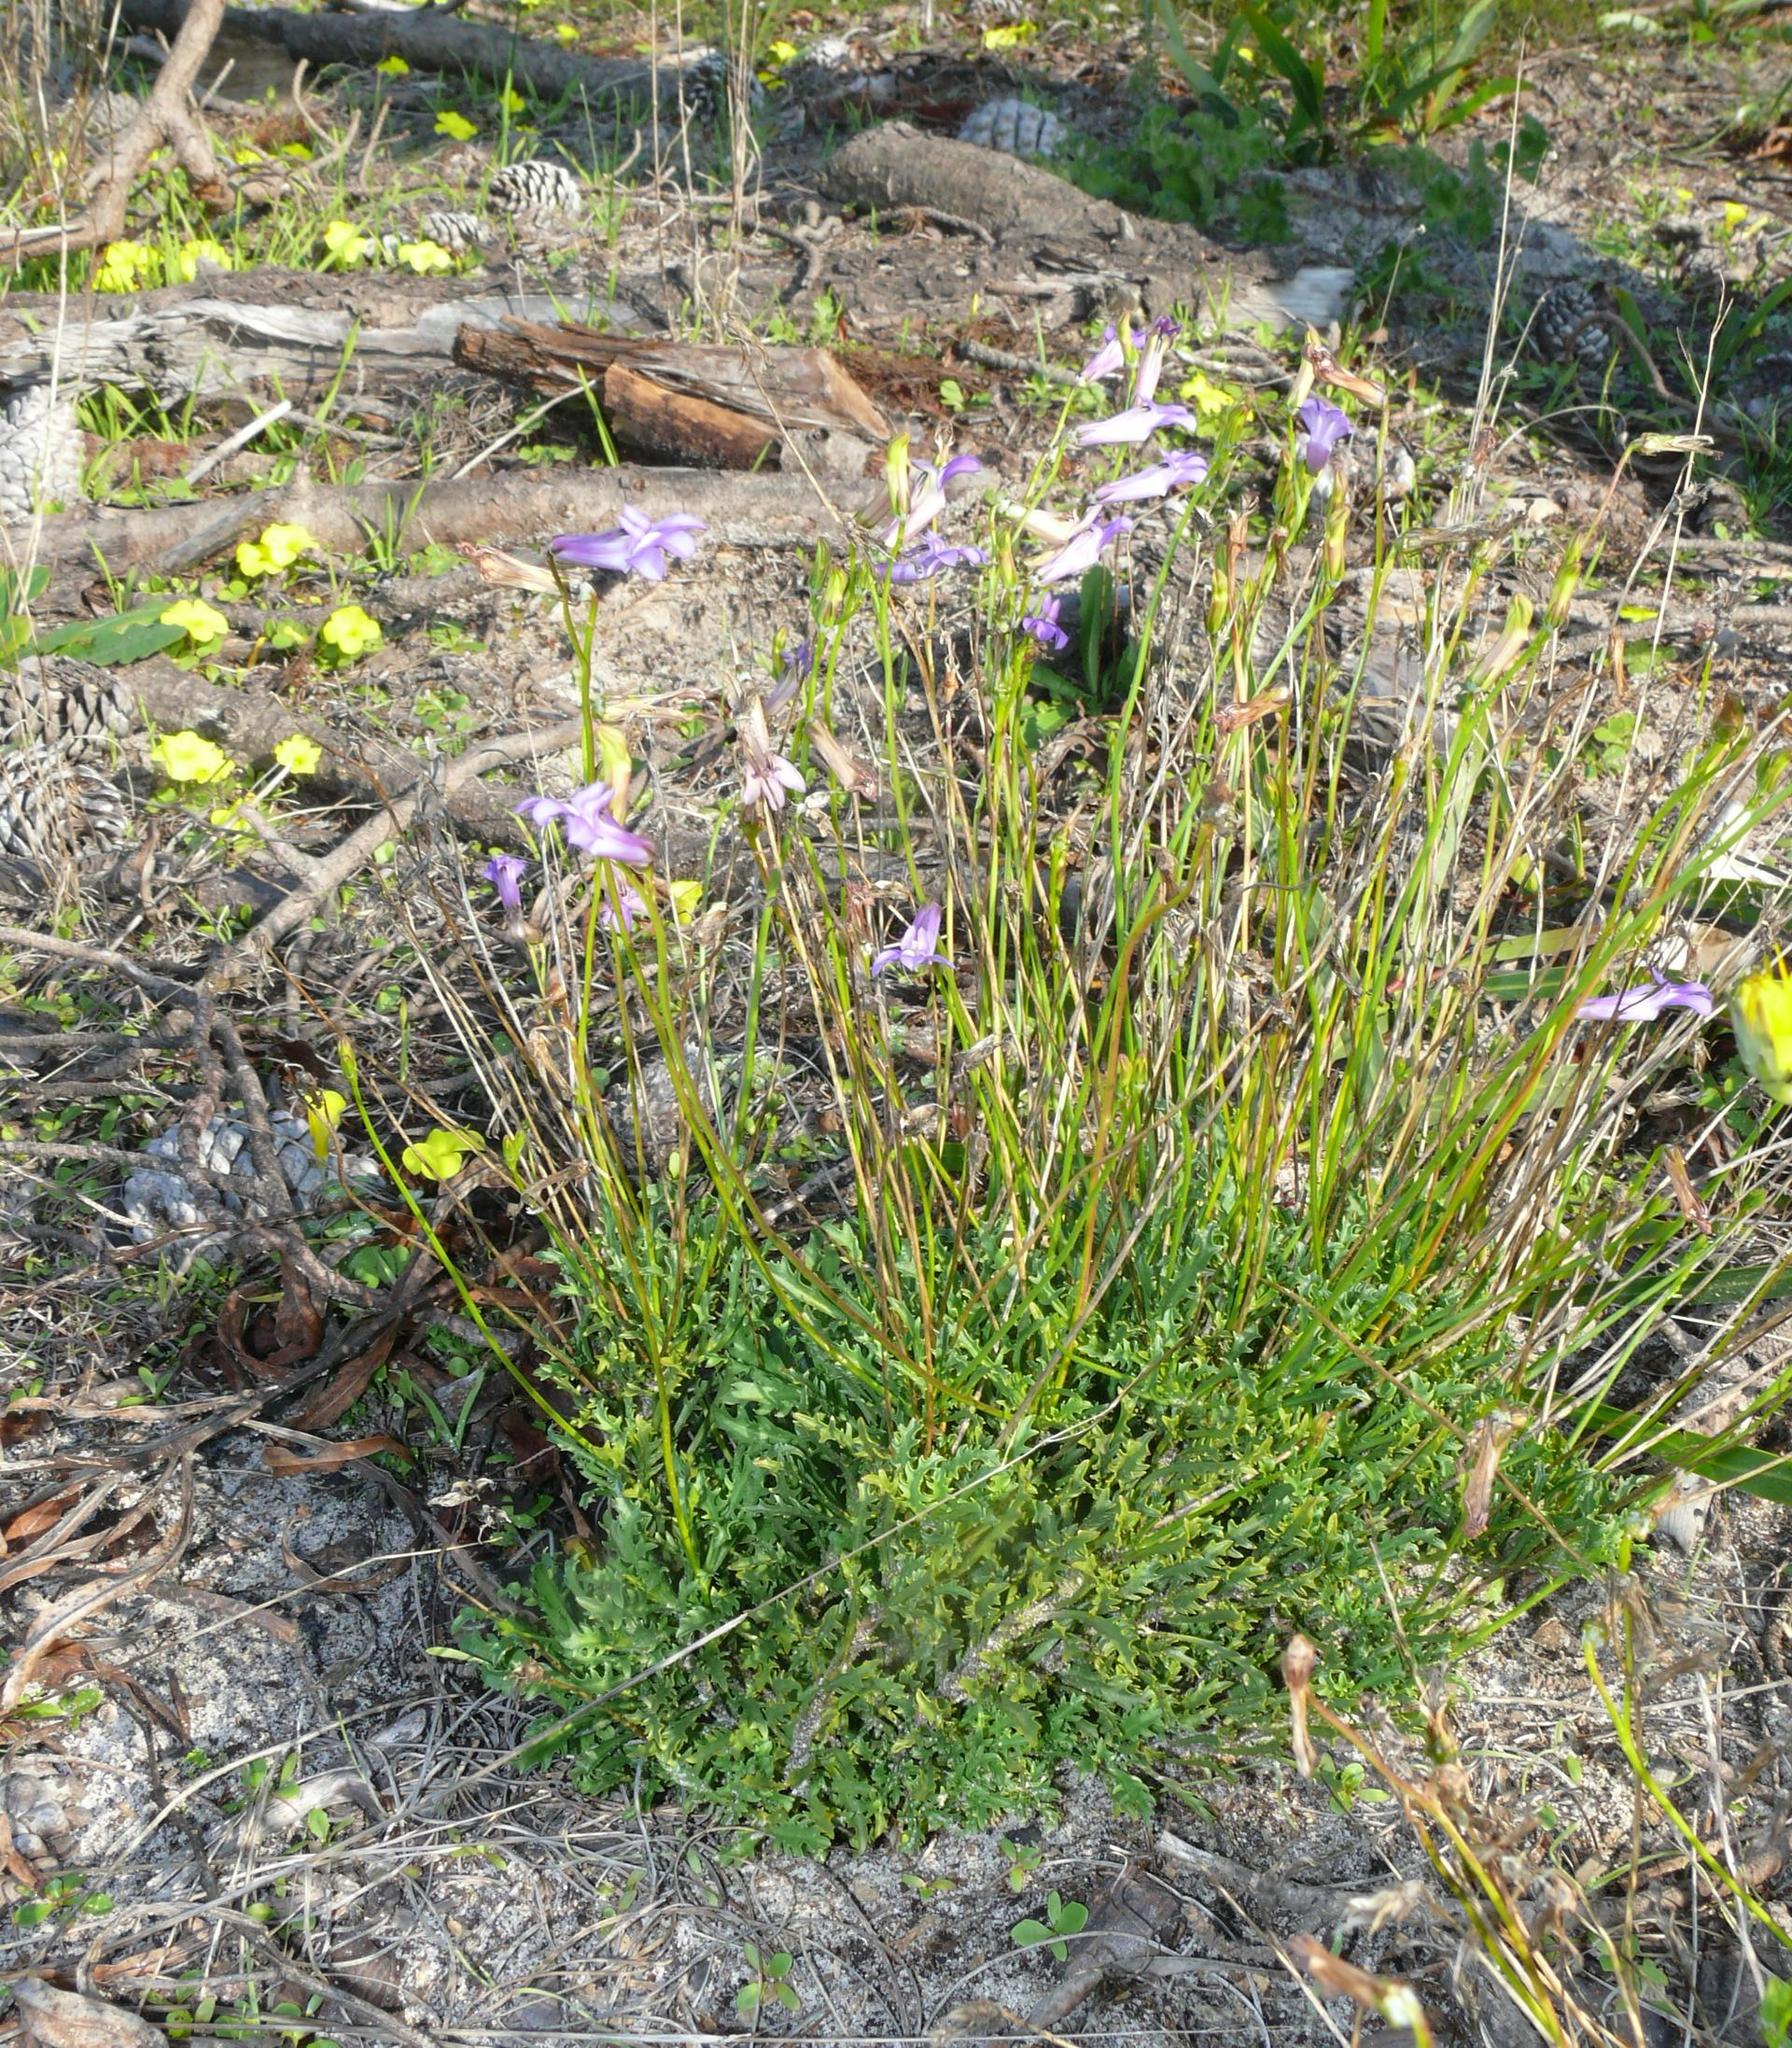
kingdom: Plantae
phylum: Tracheophyta
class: Magnoliopsida
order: Asterales
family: Campanulaceae
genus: Lobelia
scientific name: Lobelia coronopifolia
